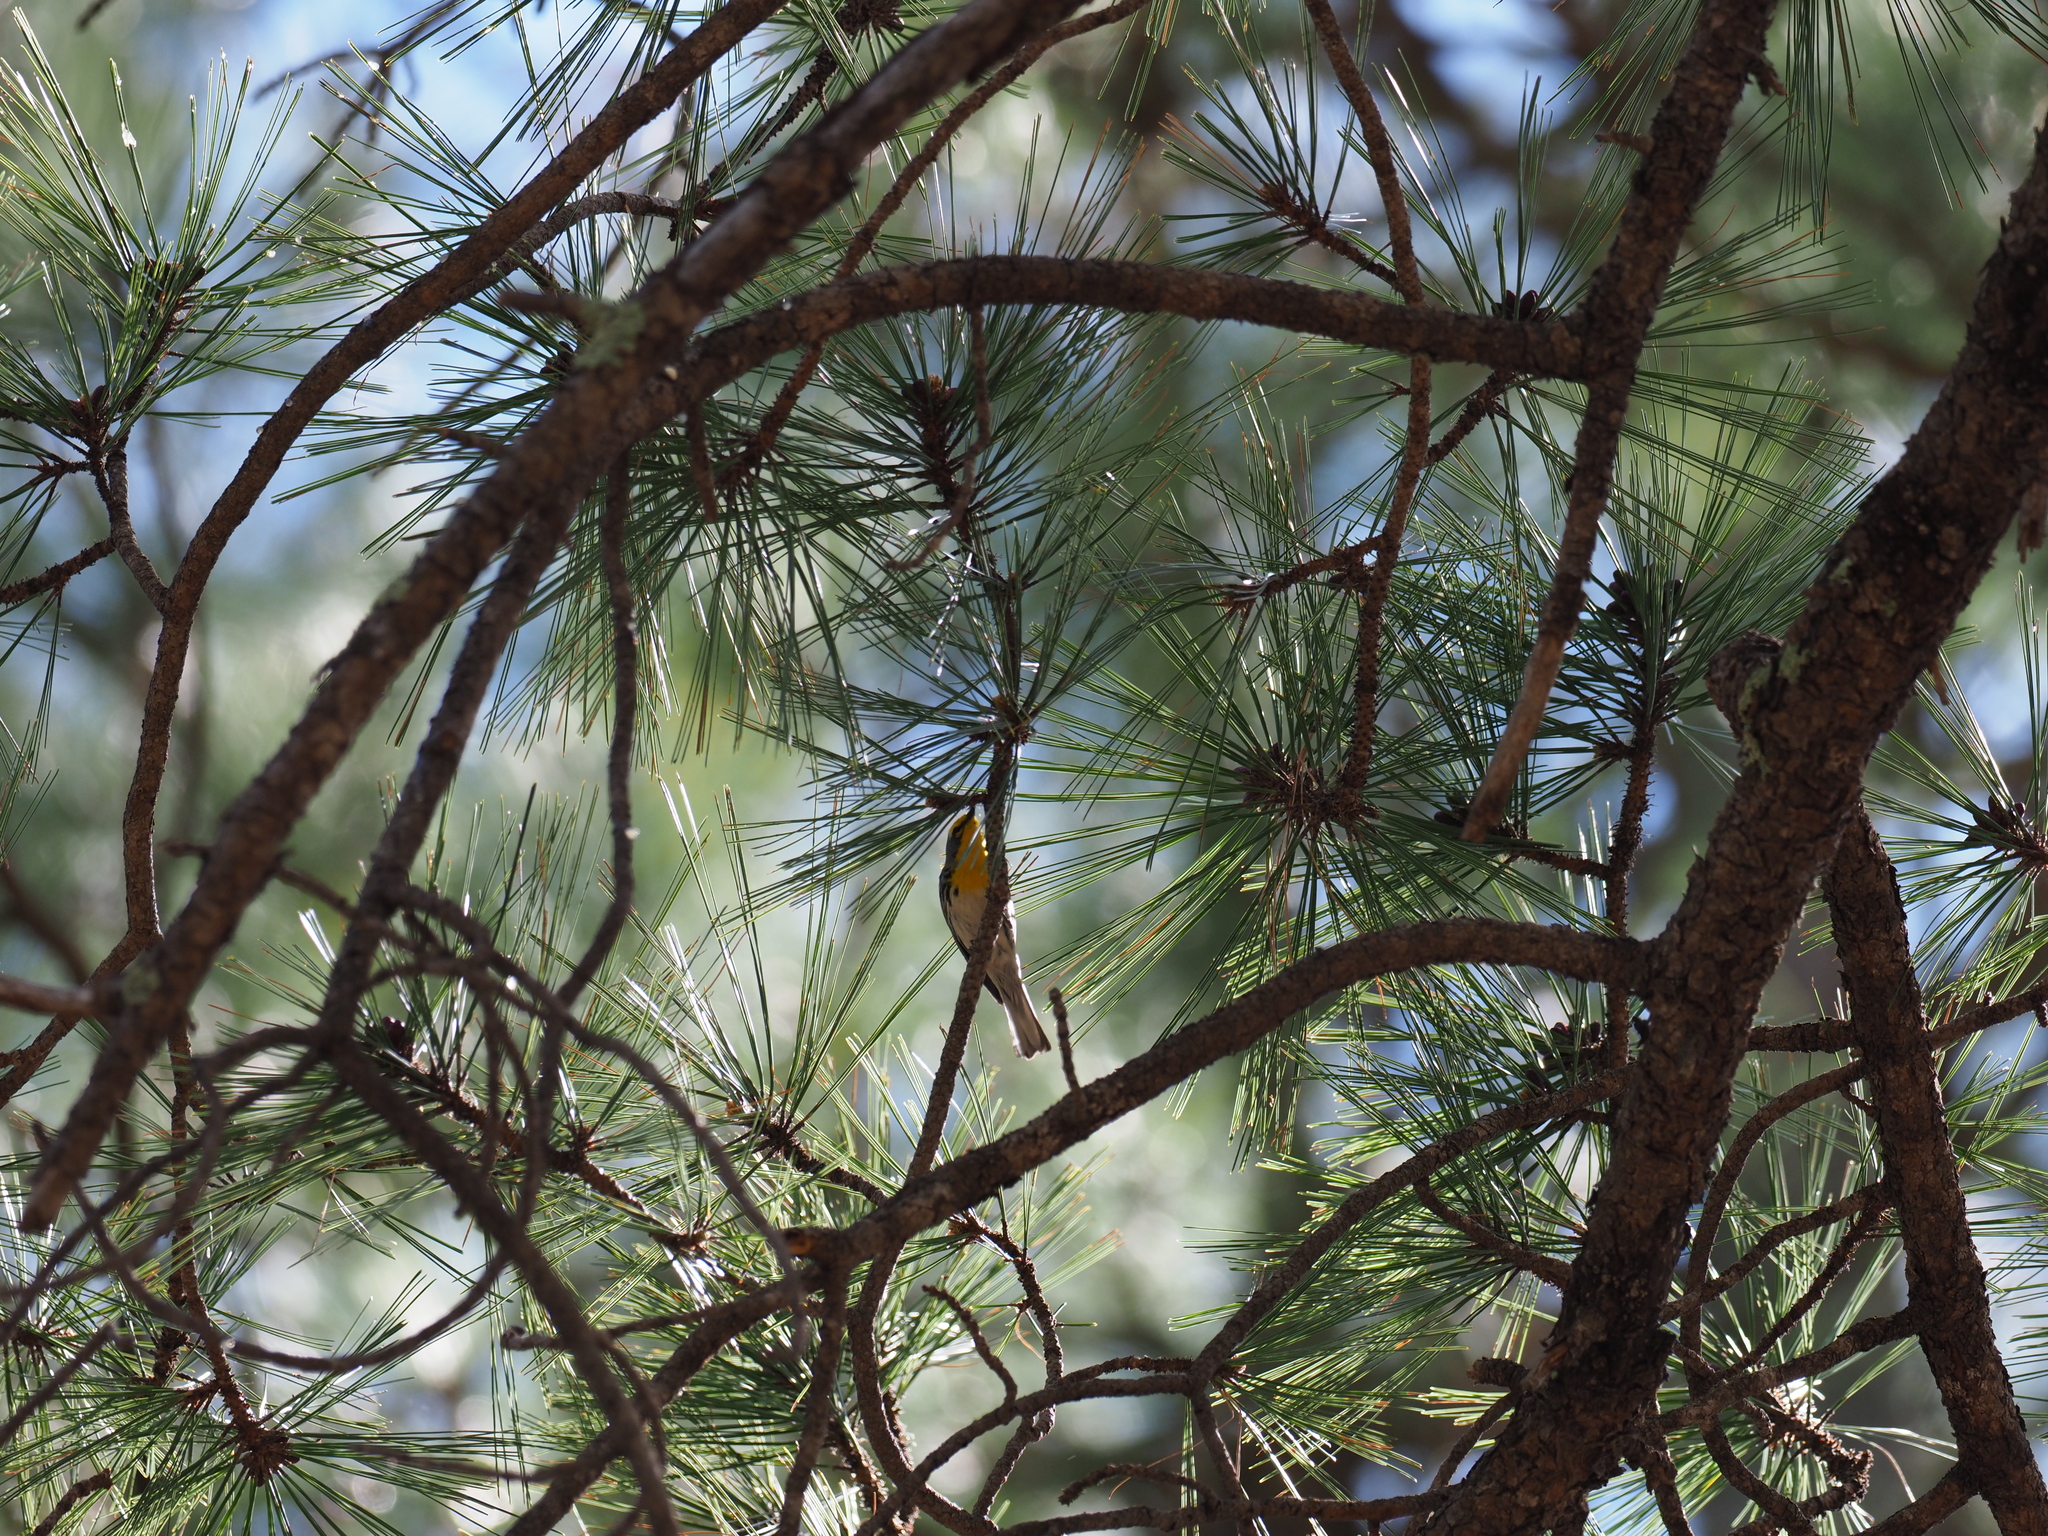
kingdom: Animalia
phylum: Chordata
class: Aves
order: Passeriformes
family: Parulidae
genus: Setophaga
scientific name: Setophaga graciae
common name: Grace's warbler
